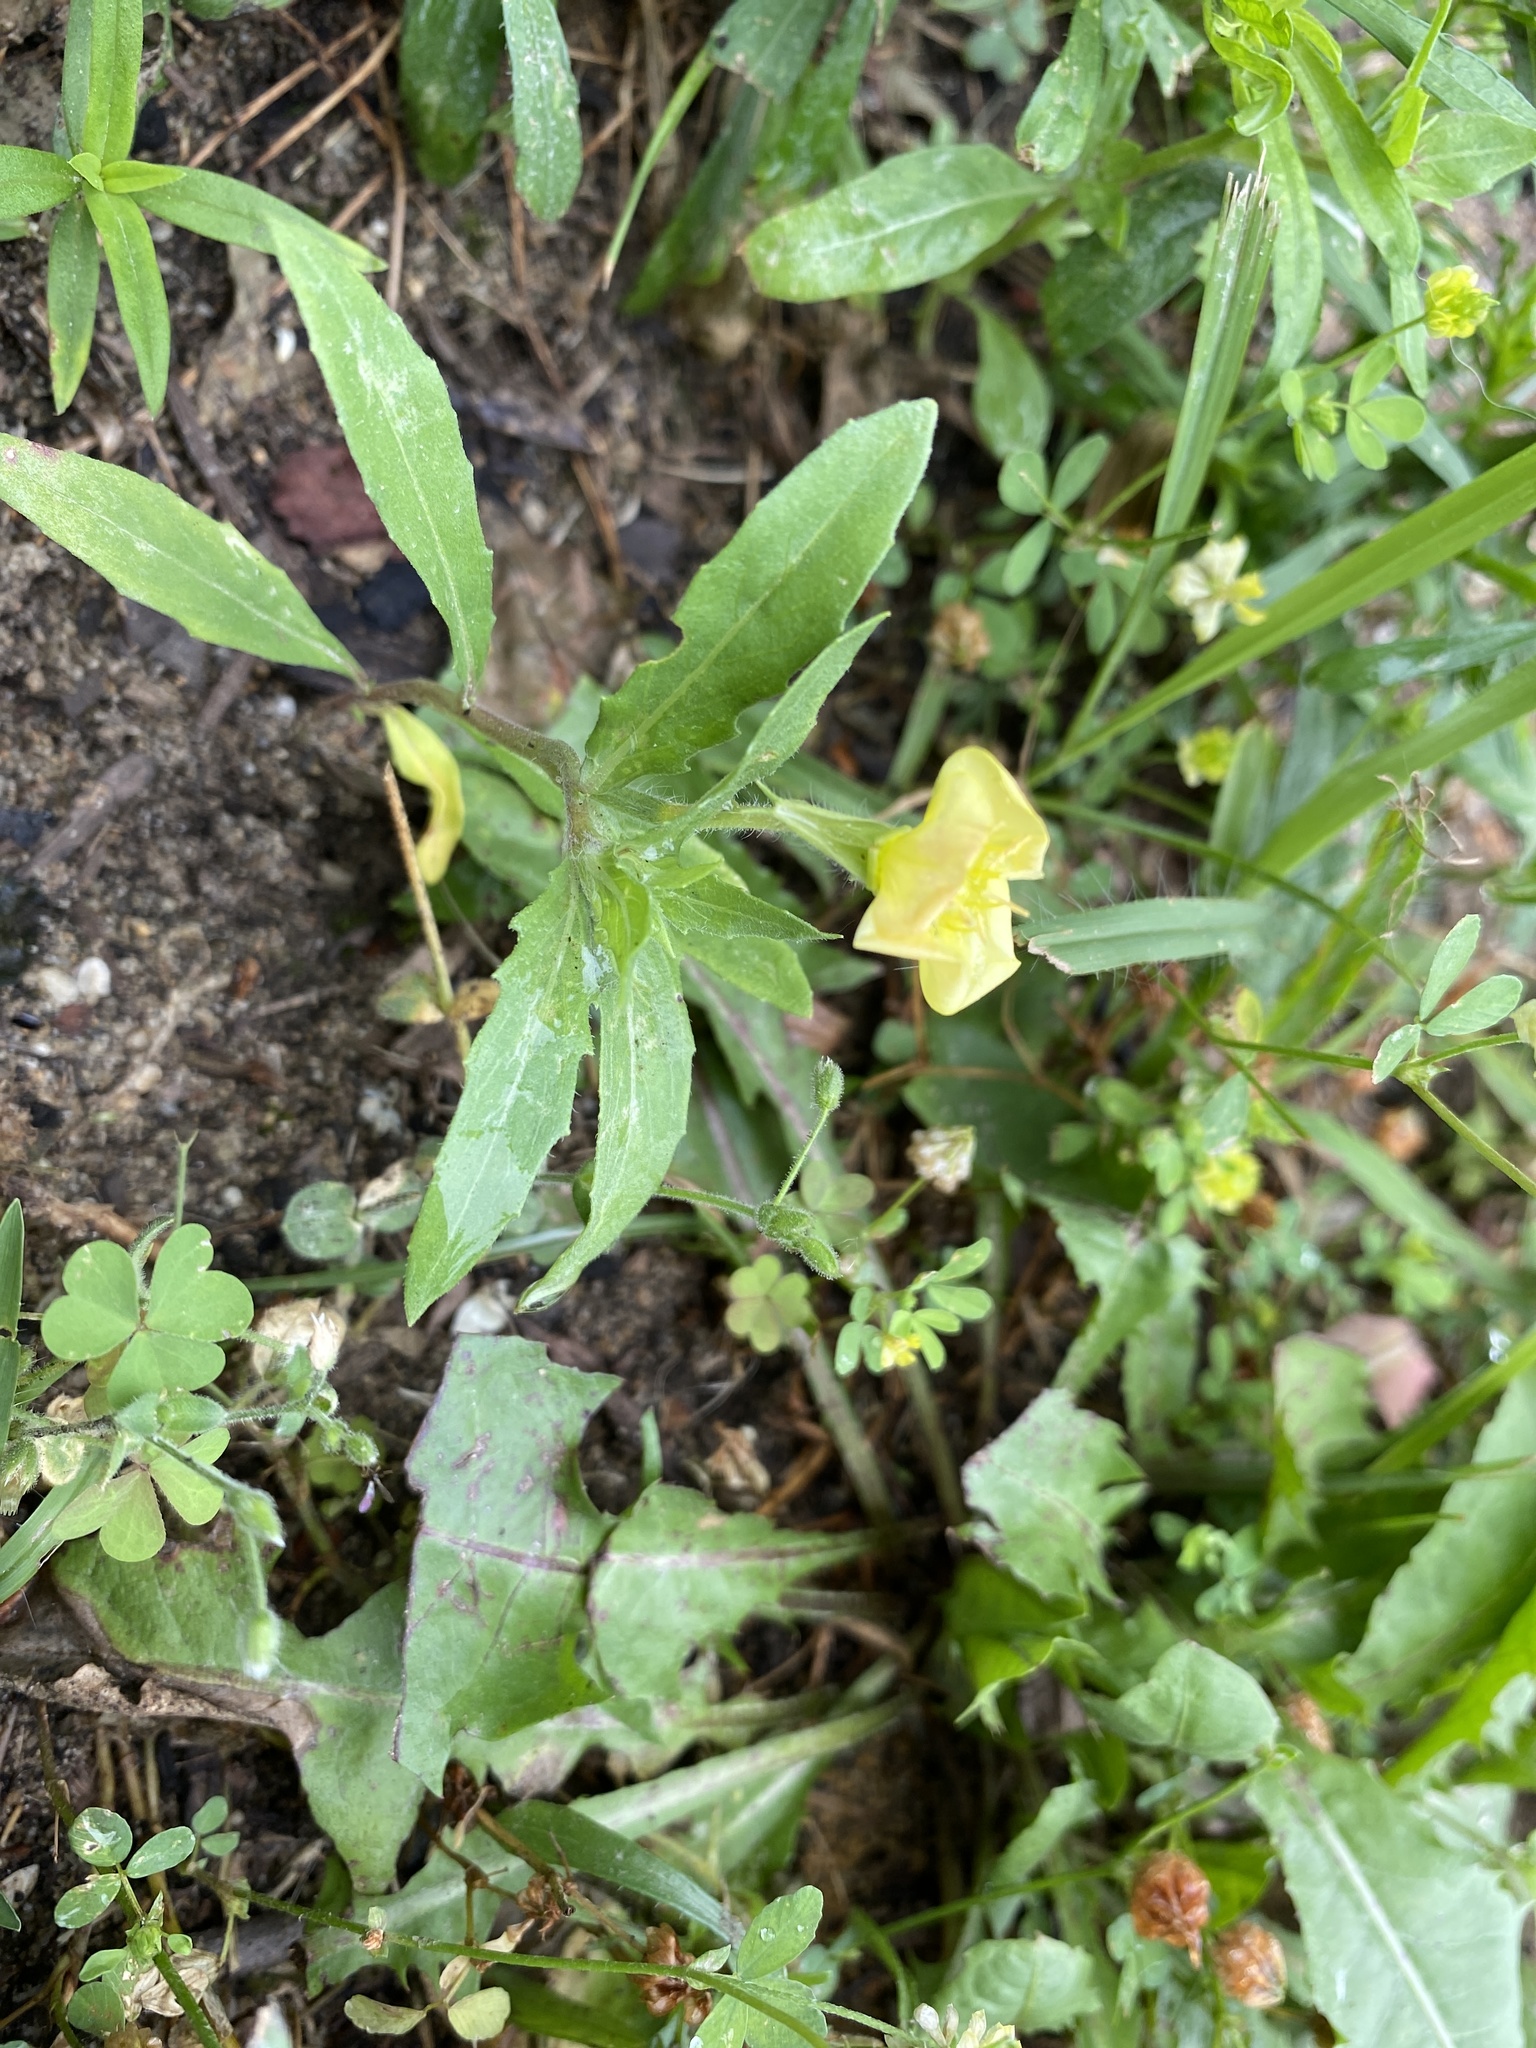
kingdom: Plantae
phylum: Tracheophyta
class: Magnoliopsida
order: Myrtales
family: Onagraceae
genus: Oenothera
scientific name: Oenothera laciniata
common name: Cut-leaved evening-primrose
